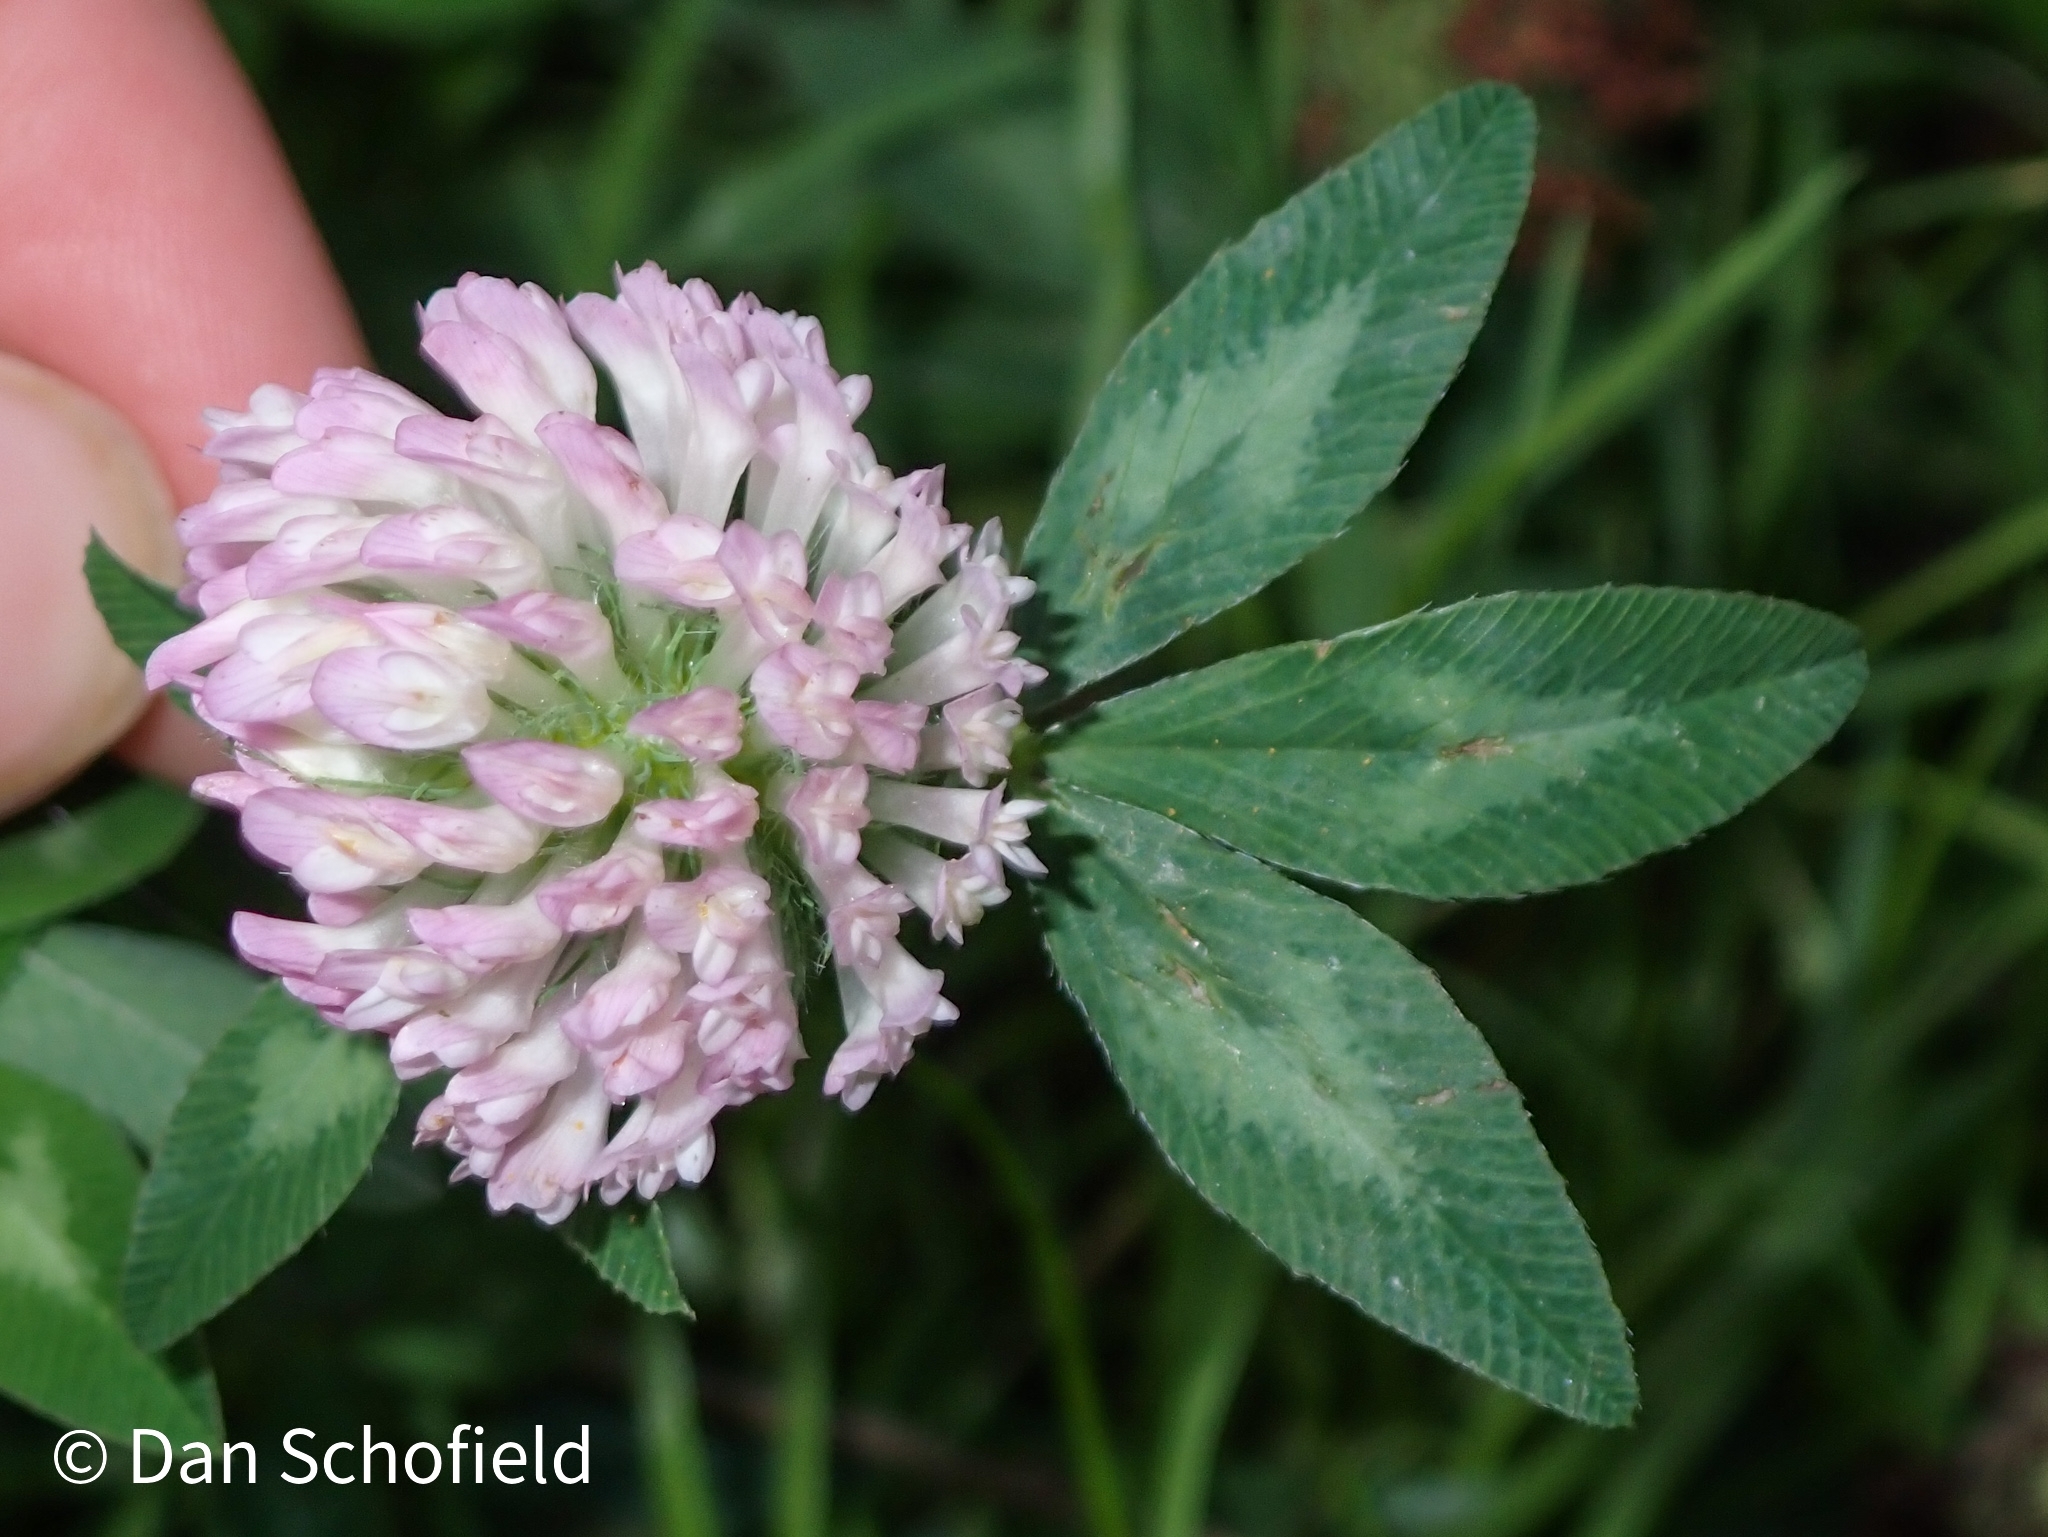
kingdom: Plantae
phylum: Tracheophyta
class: Magnoliopsida
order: Fabales
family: Fabaceae
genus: Trifolium
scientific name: Trifolium pratense
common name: Red clover
